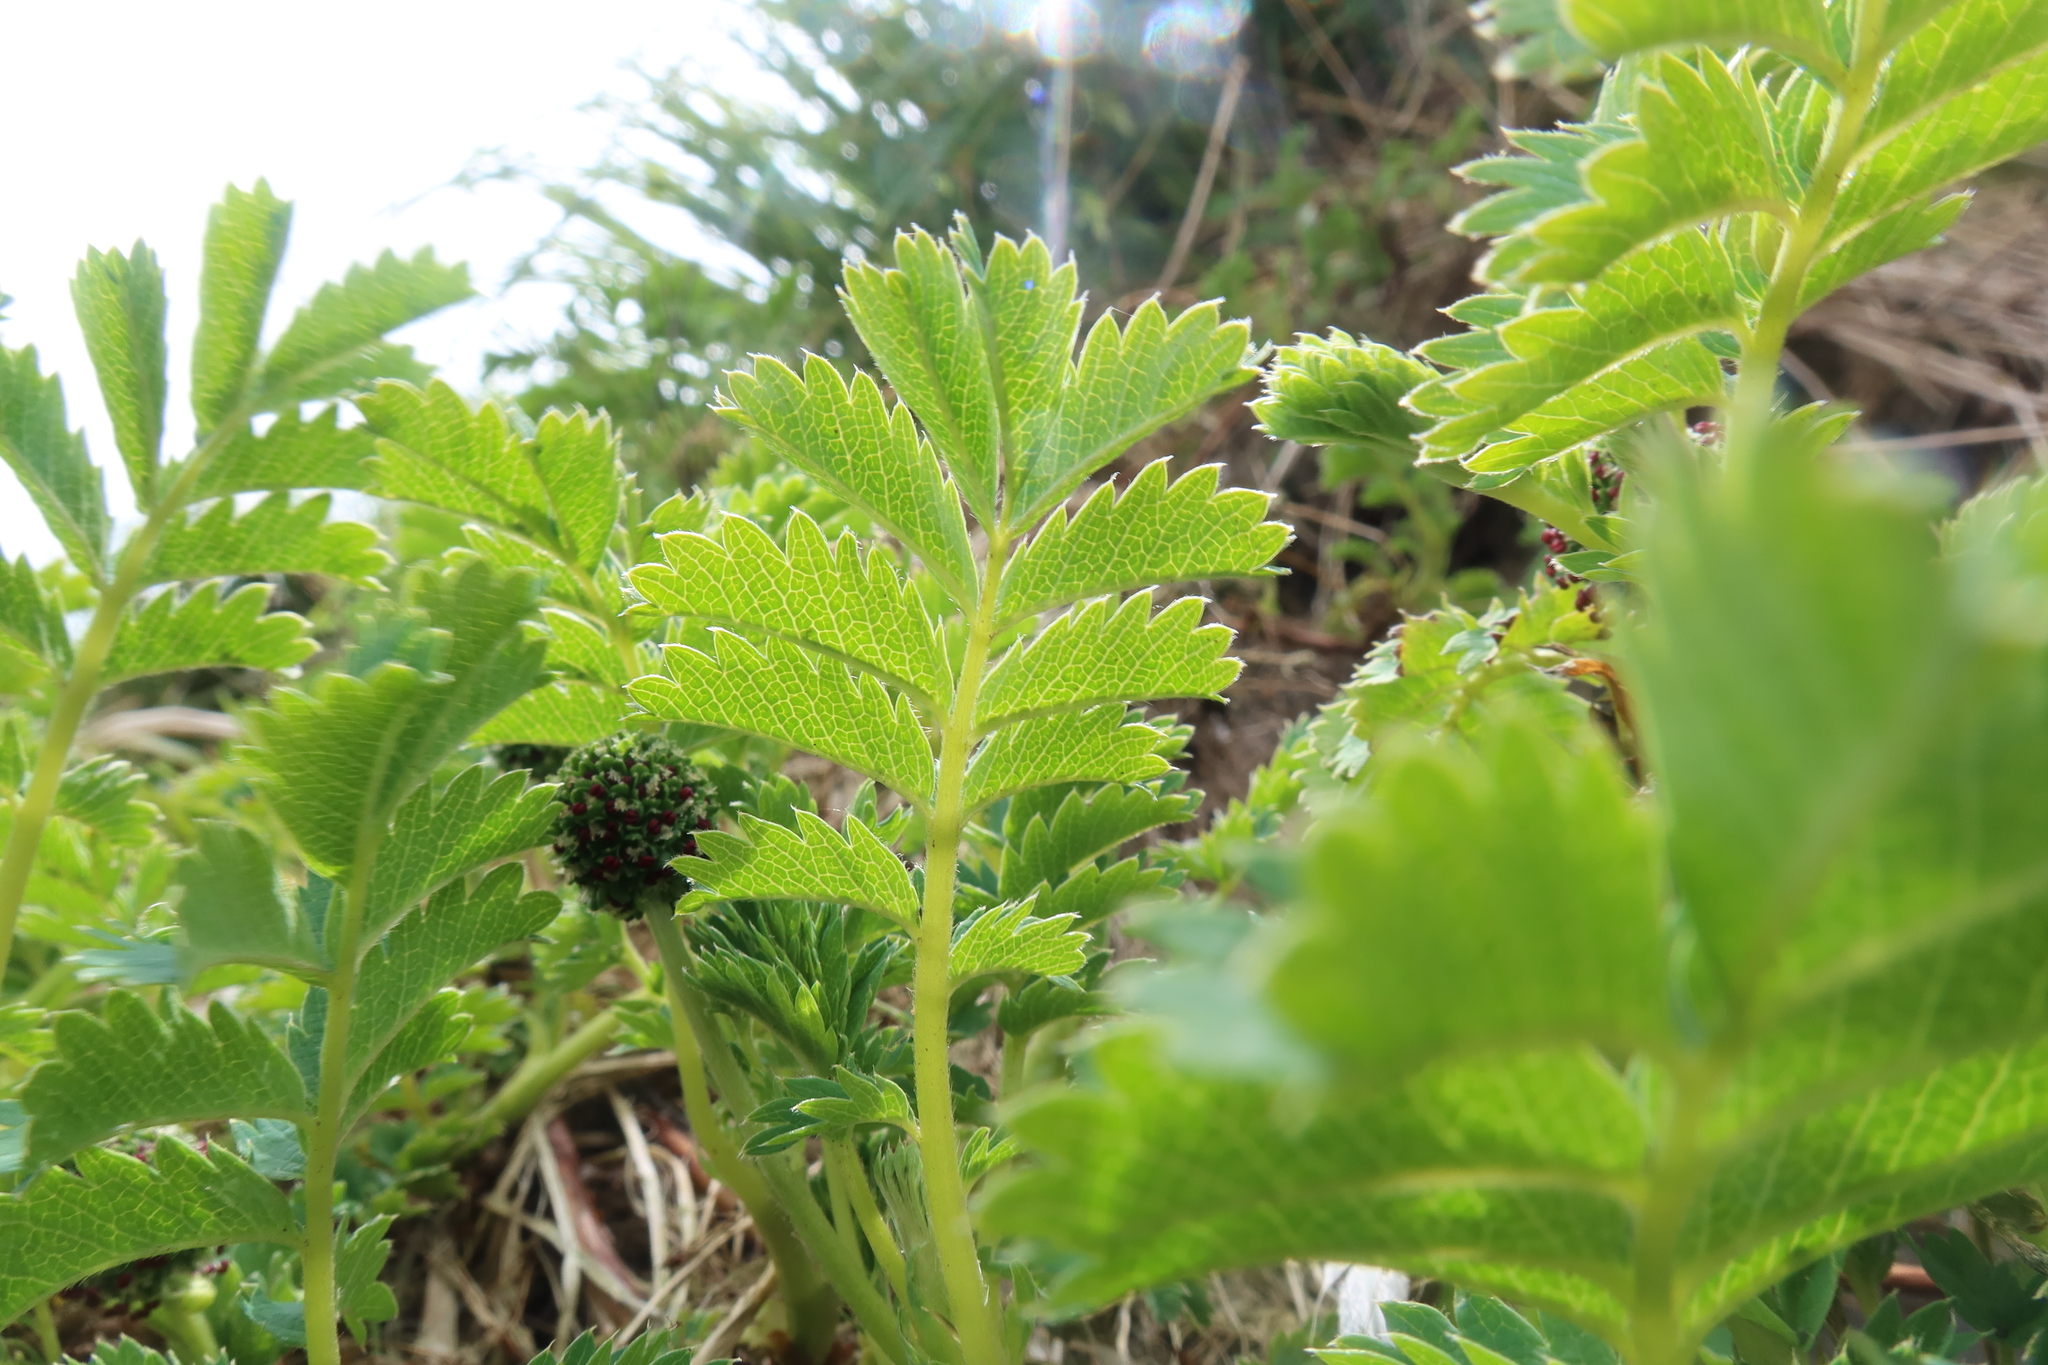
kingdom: Plantae
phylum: Tracheophyta
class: Magnoliopsida
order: Rosales
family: Rosaceae
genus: Acaena
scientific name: Acaena magellanica
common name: New zealand burr
